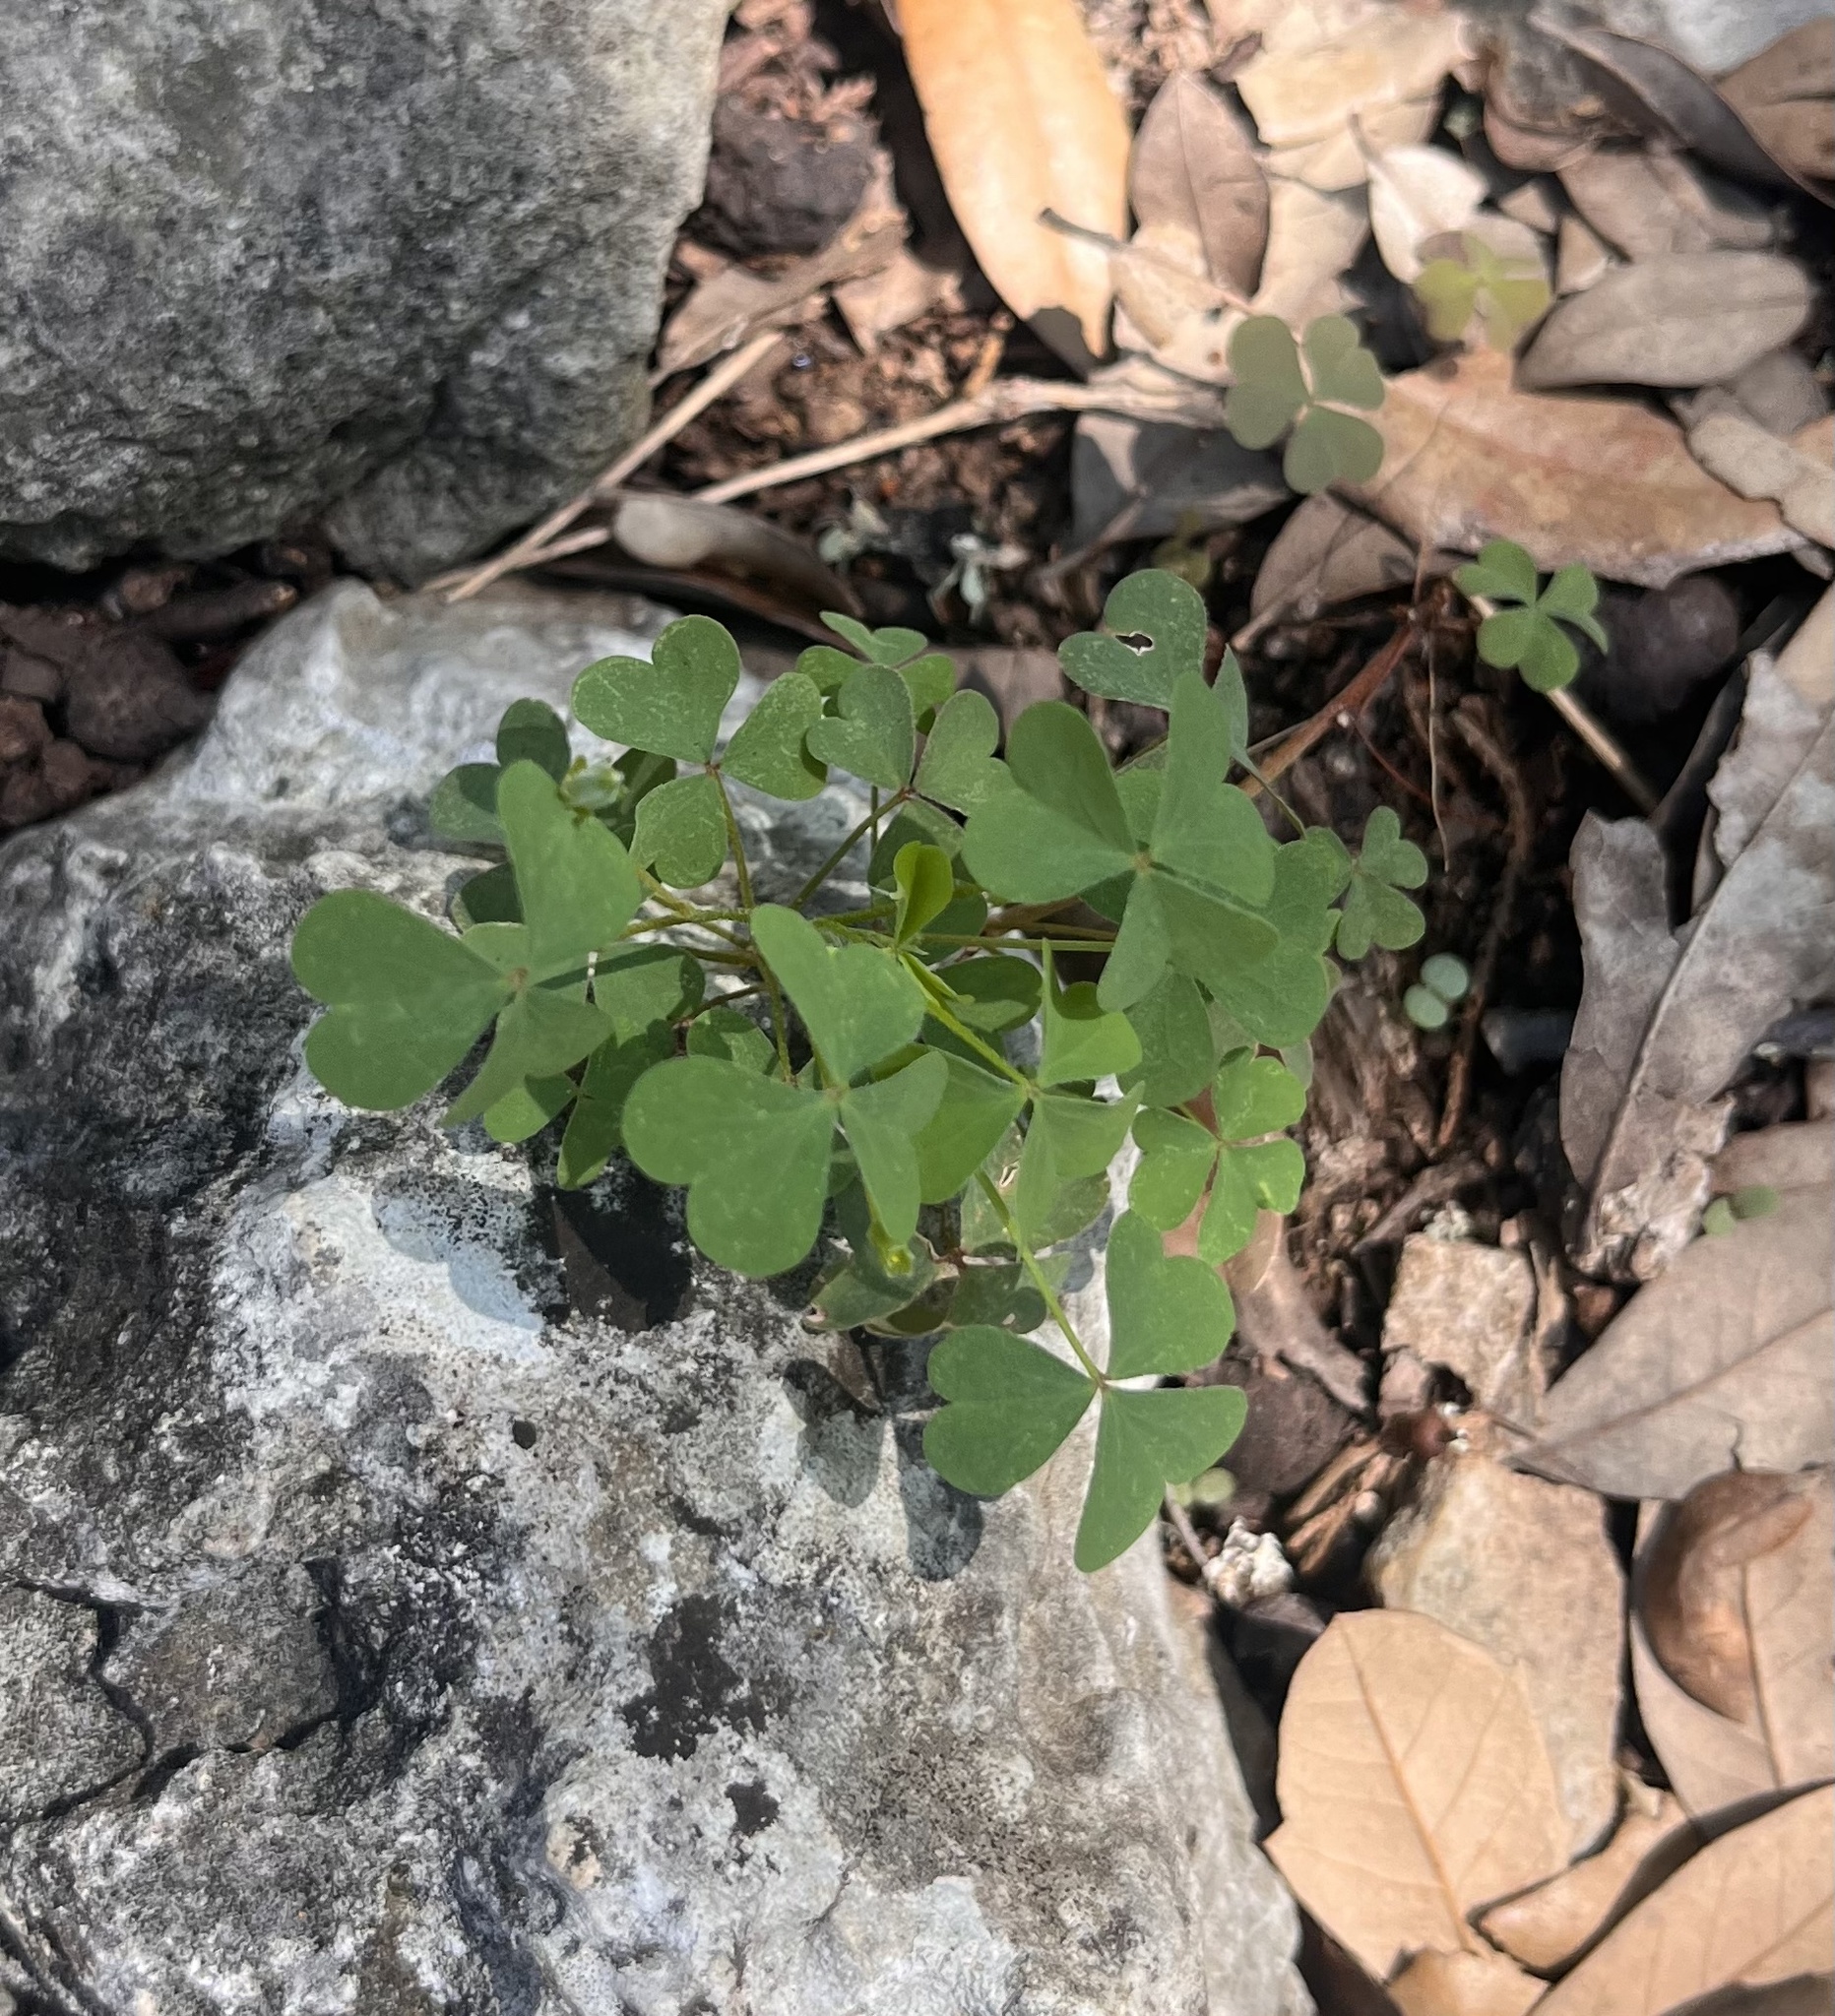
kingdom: Plantae
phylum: Tracheophyta
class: Magnoliopsida
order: Oxalidales
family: Oxalidaceae
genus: Oxalis
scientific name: Oxalis dillenii
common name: Sussex yellow-sorrel
